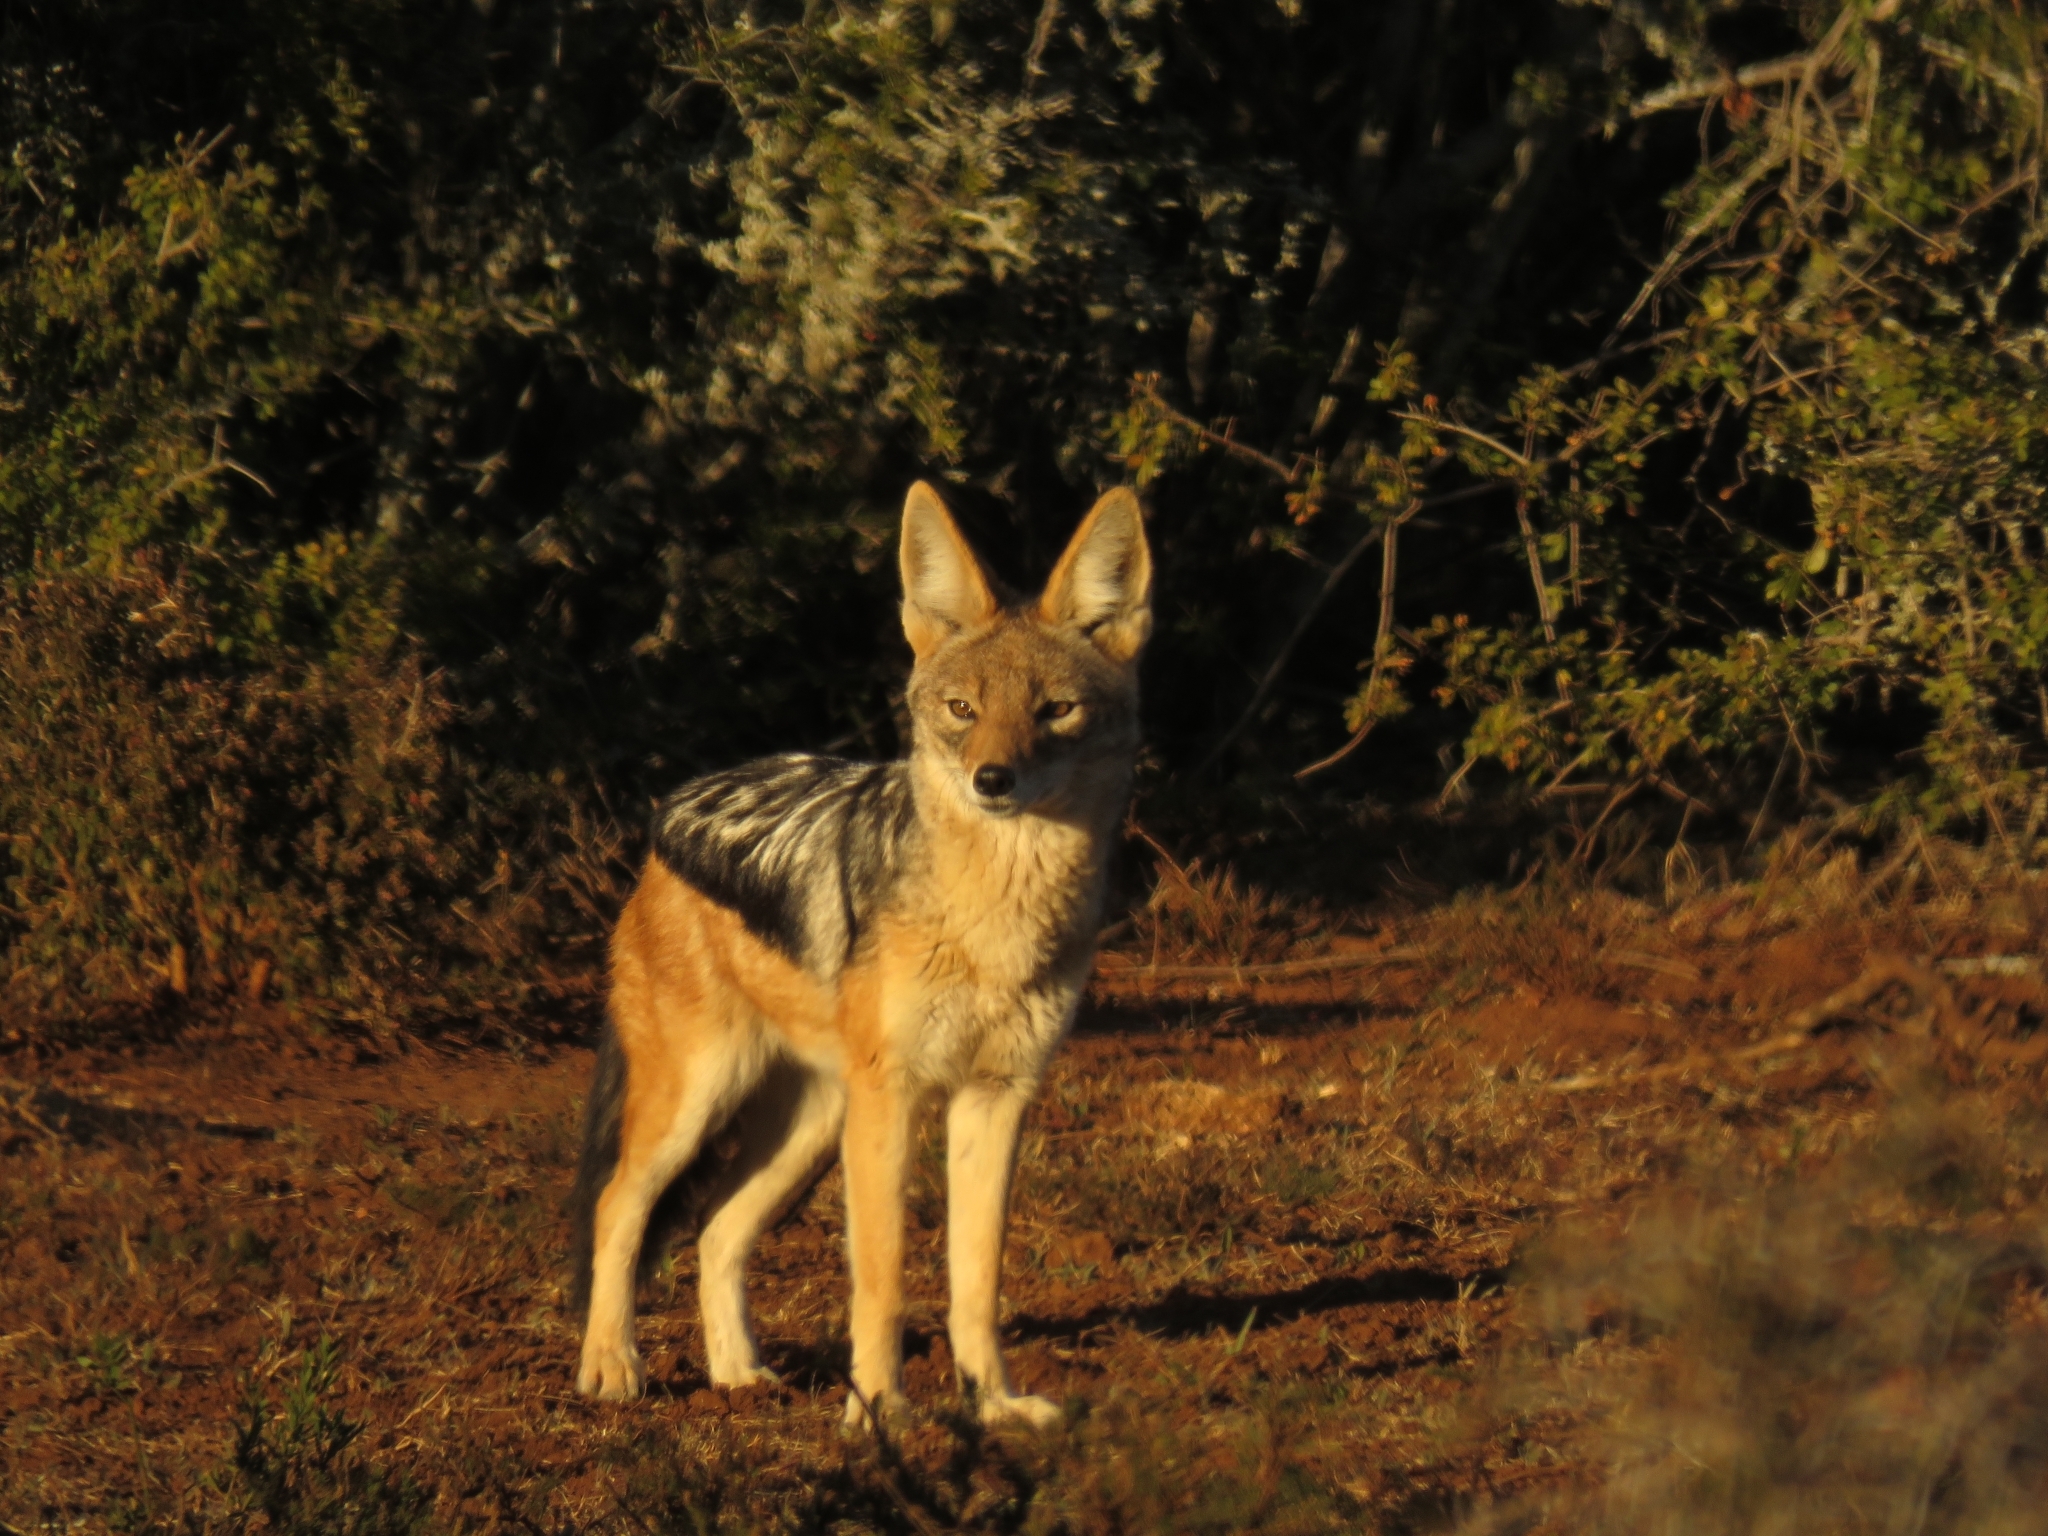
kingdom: Animalia
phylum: Chordata
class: Mammalia
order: Carnivora
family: Canidae
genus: Lupulella
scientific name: Lupulella
